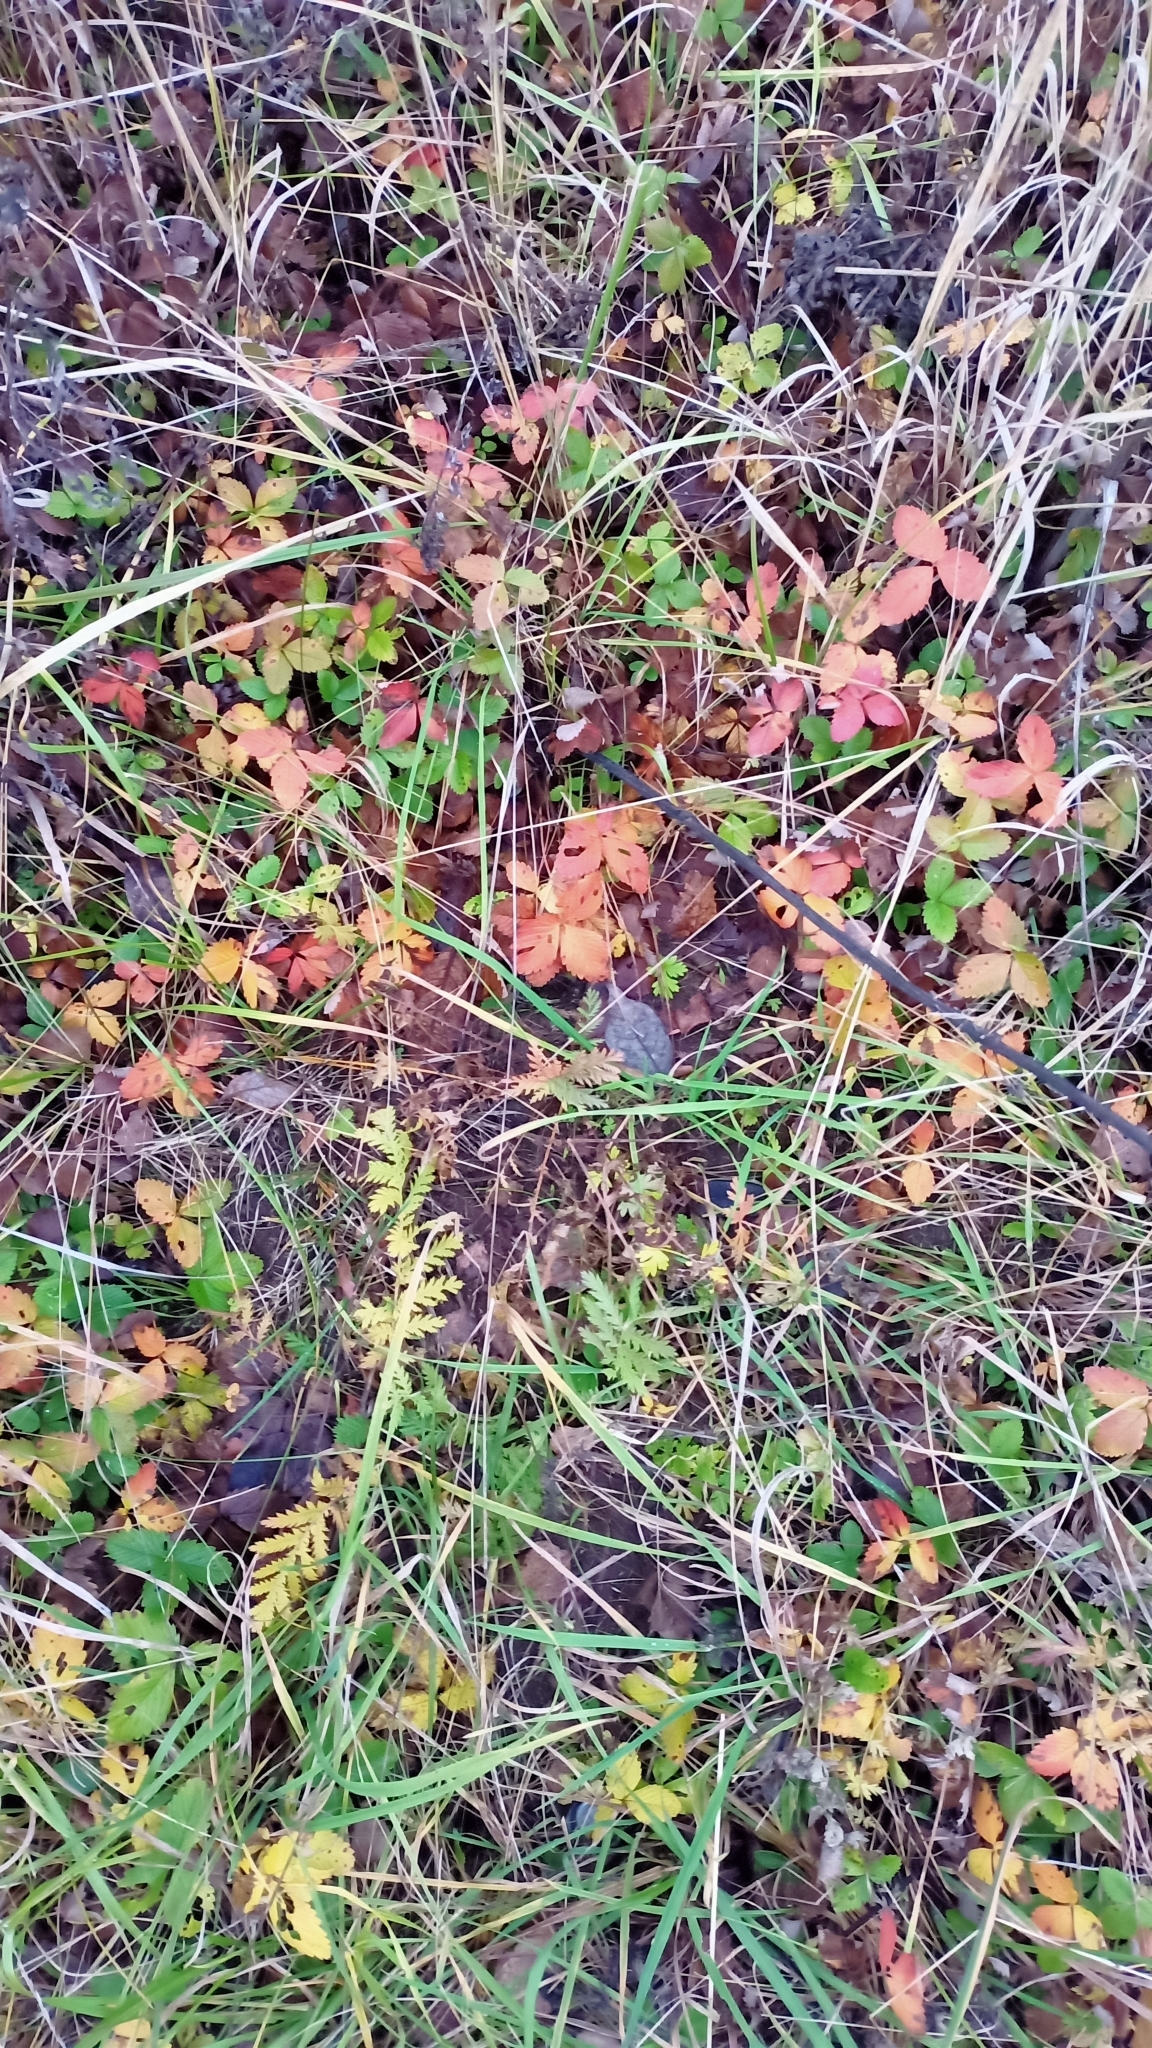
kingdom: Plantae
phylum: Tracheophyta
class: Magnoliopsida
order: Rosales
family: Rosaceae
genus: Fragaria
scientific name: Fragaria viridis
